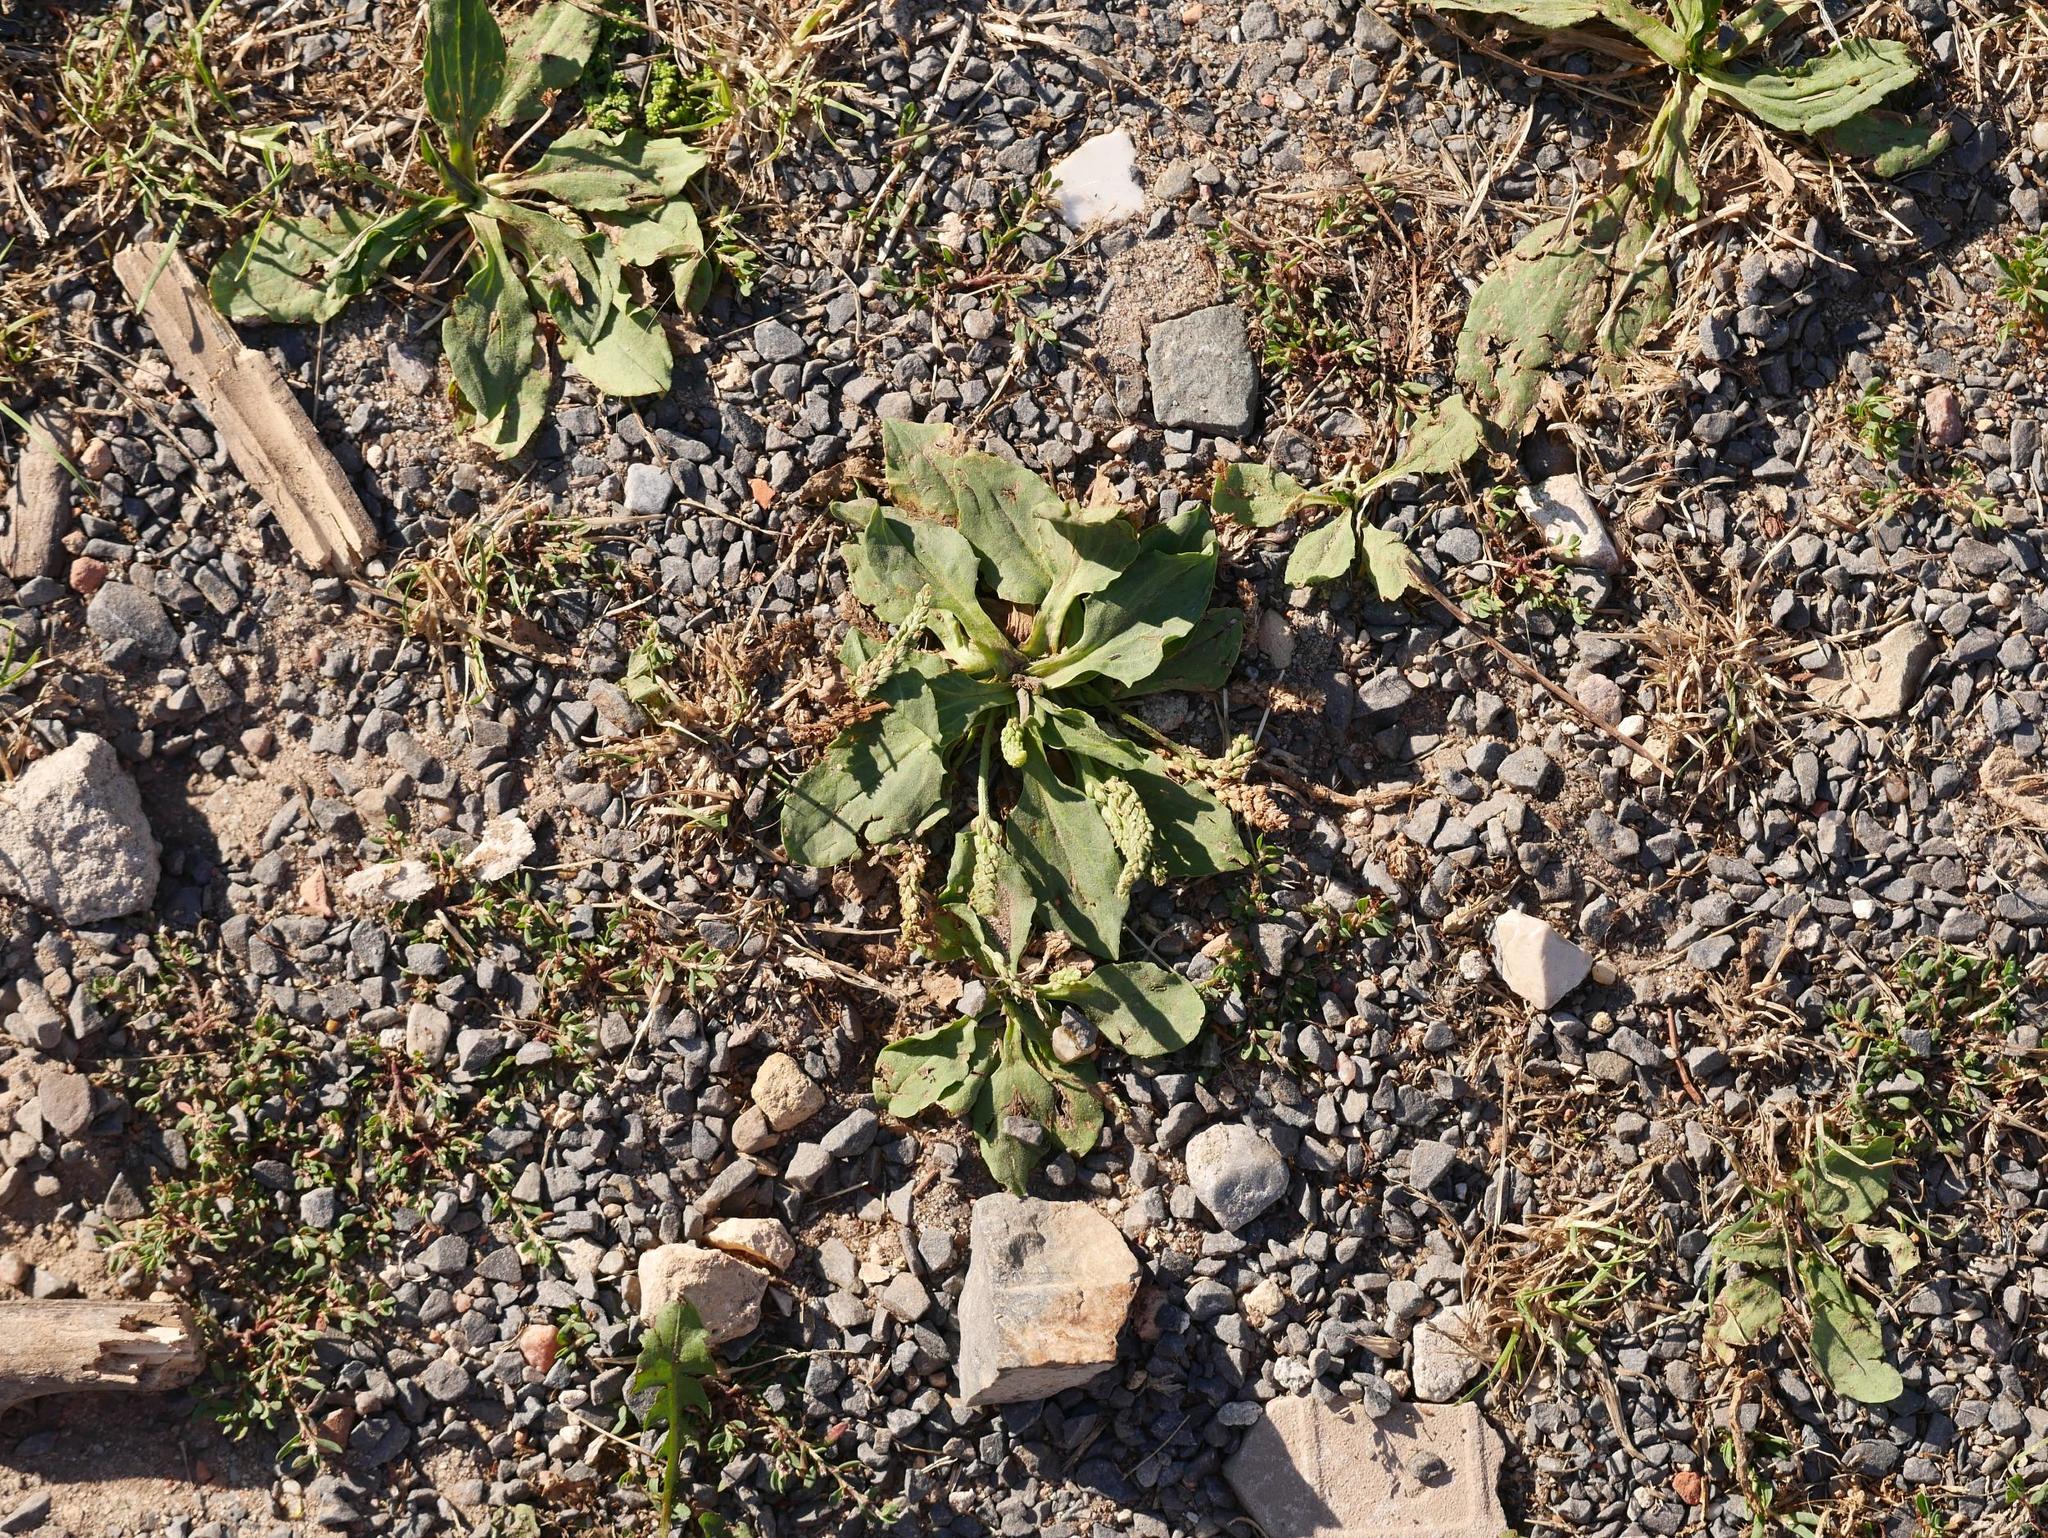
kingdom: Plantae
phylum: Tracheophyta
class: Magnoliopsida
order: Lamiales
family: Plantaginaceae
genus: Plantago
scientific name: Plantago major
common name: Common plantain
